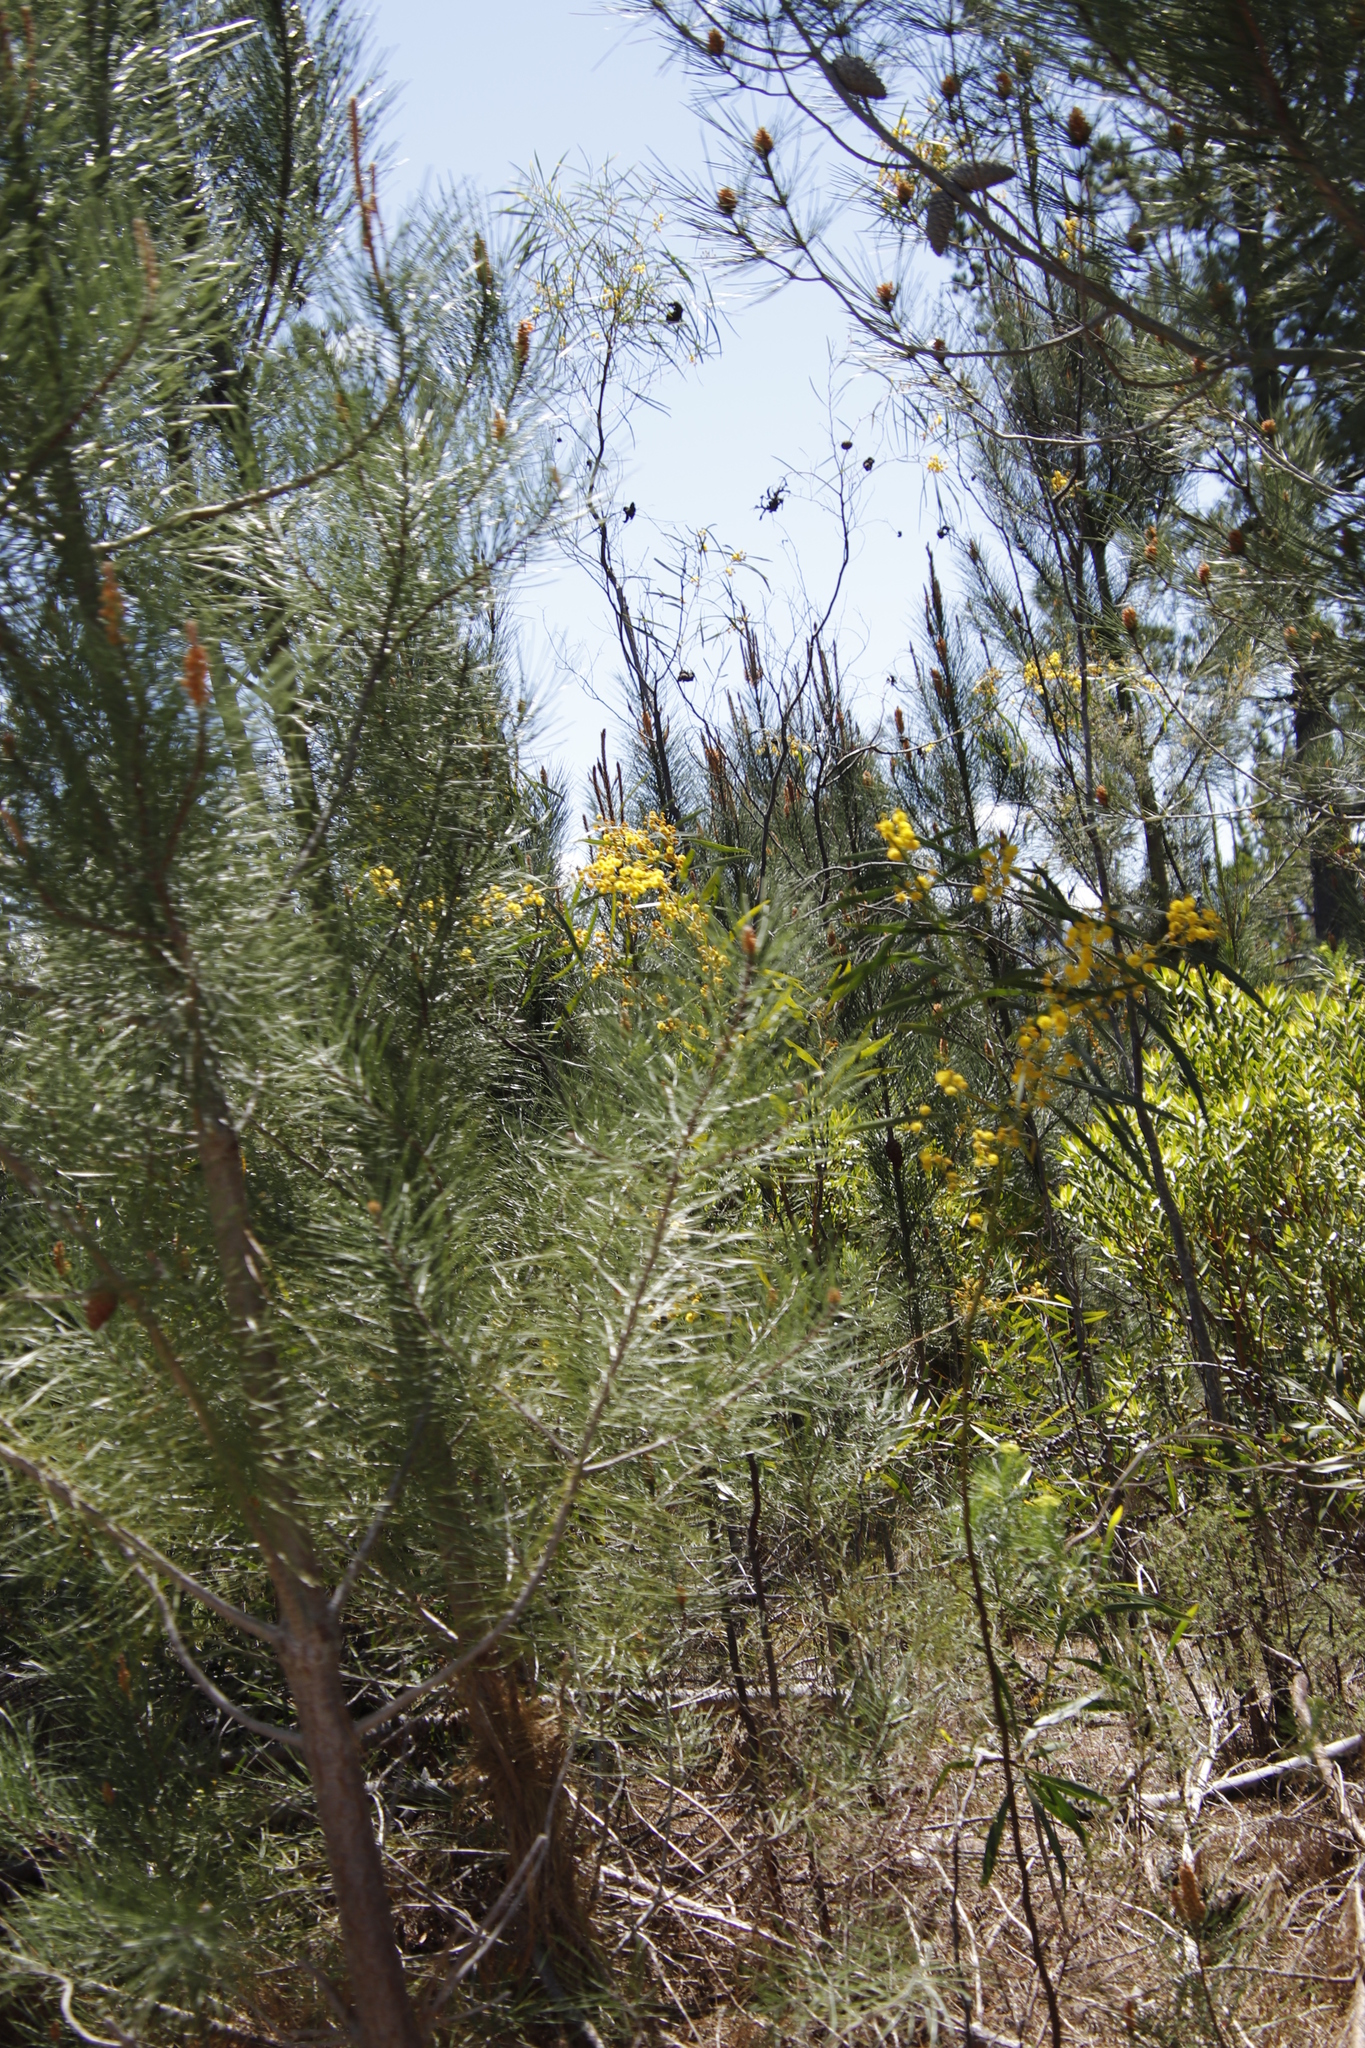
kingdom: Plantae
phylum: Tracheophyta
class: Magnoliopsida
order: Fabales
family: Fabaceae
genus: Acacia
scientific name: Acacia saligna
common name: Orange wattle
